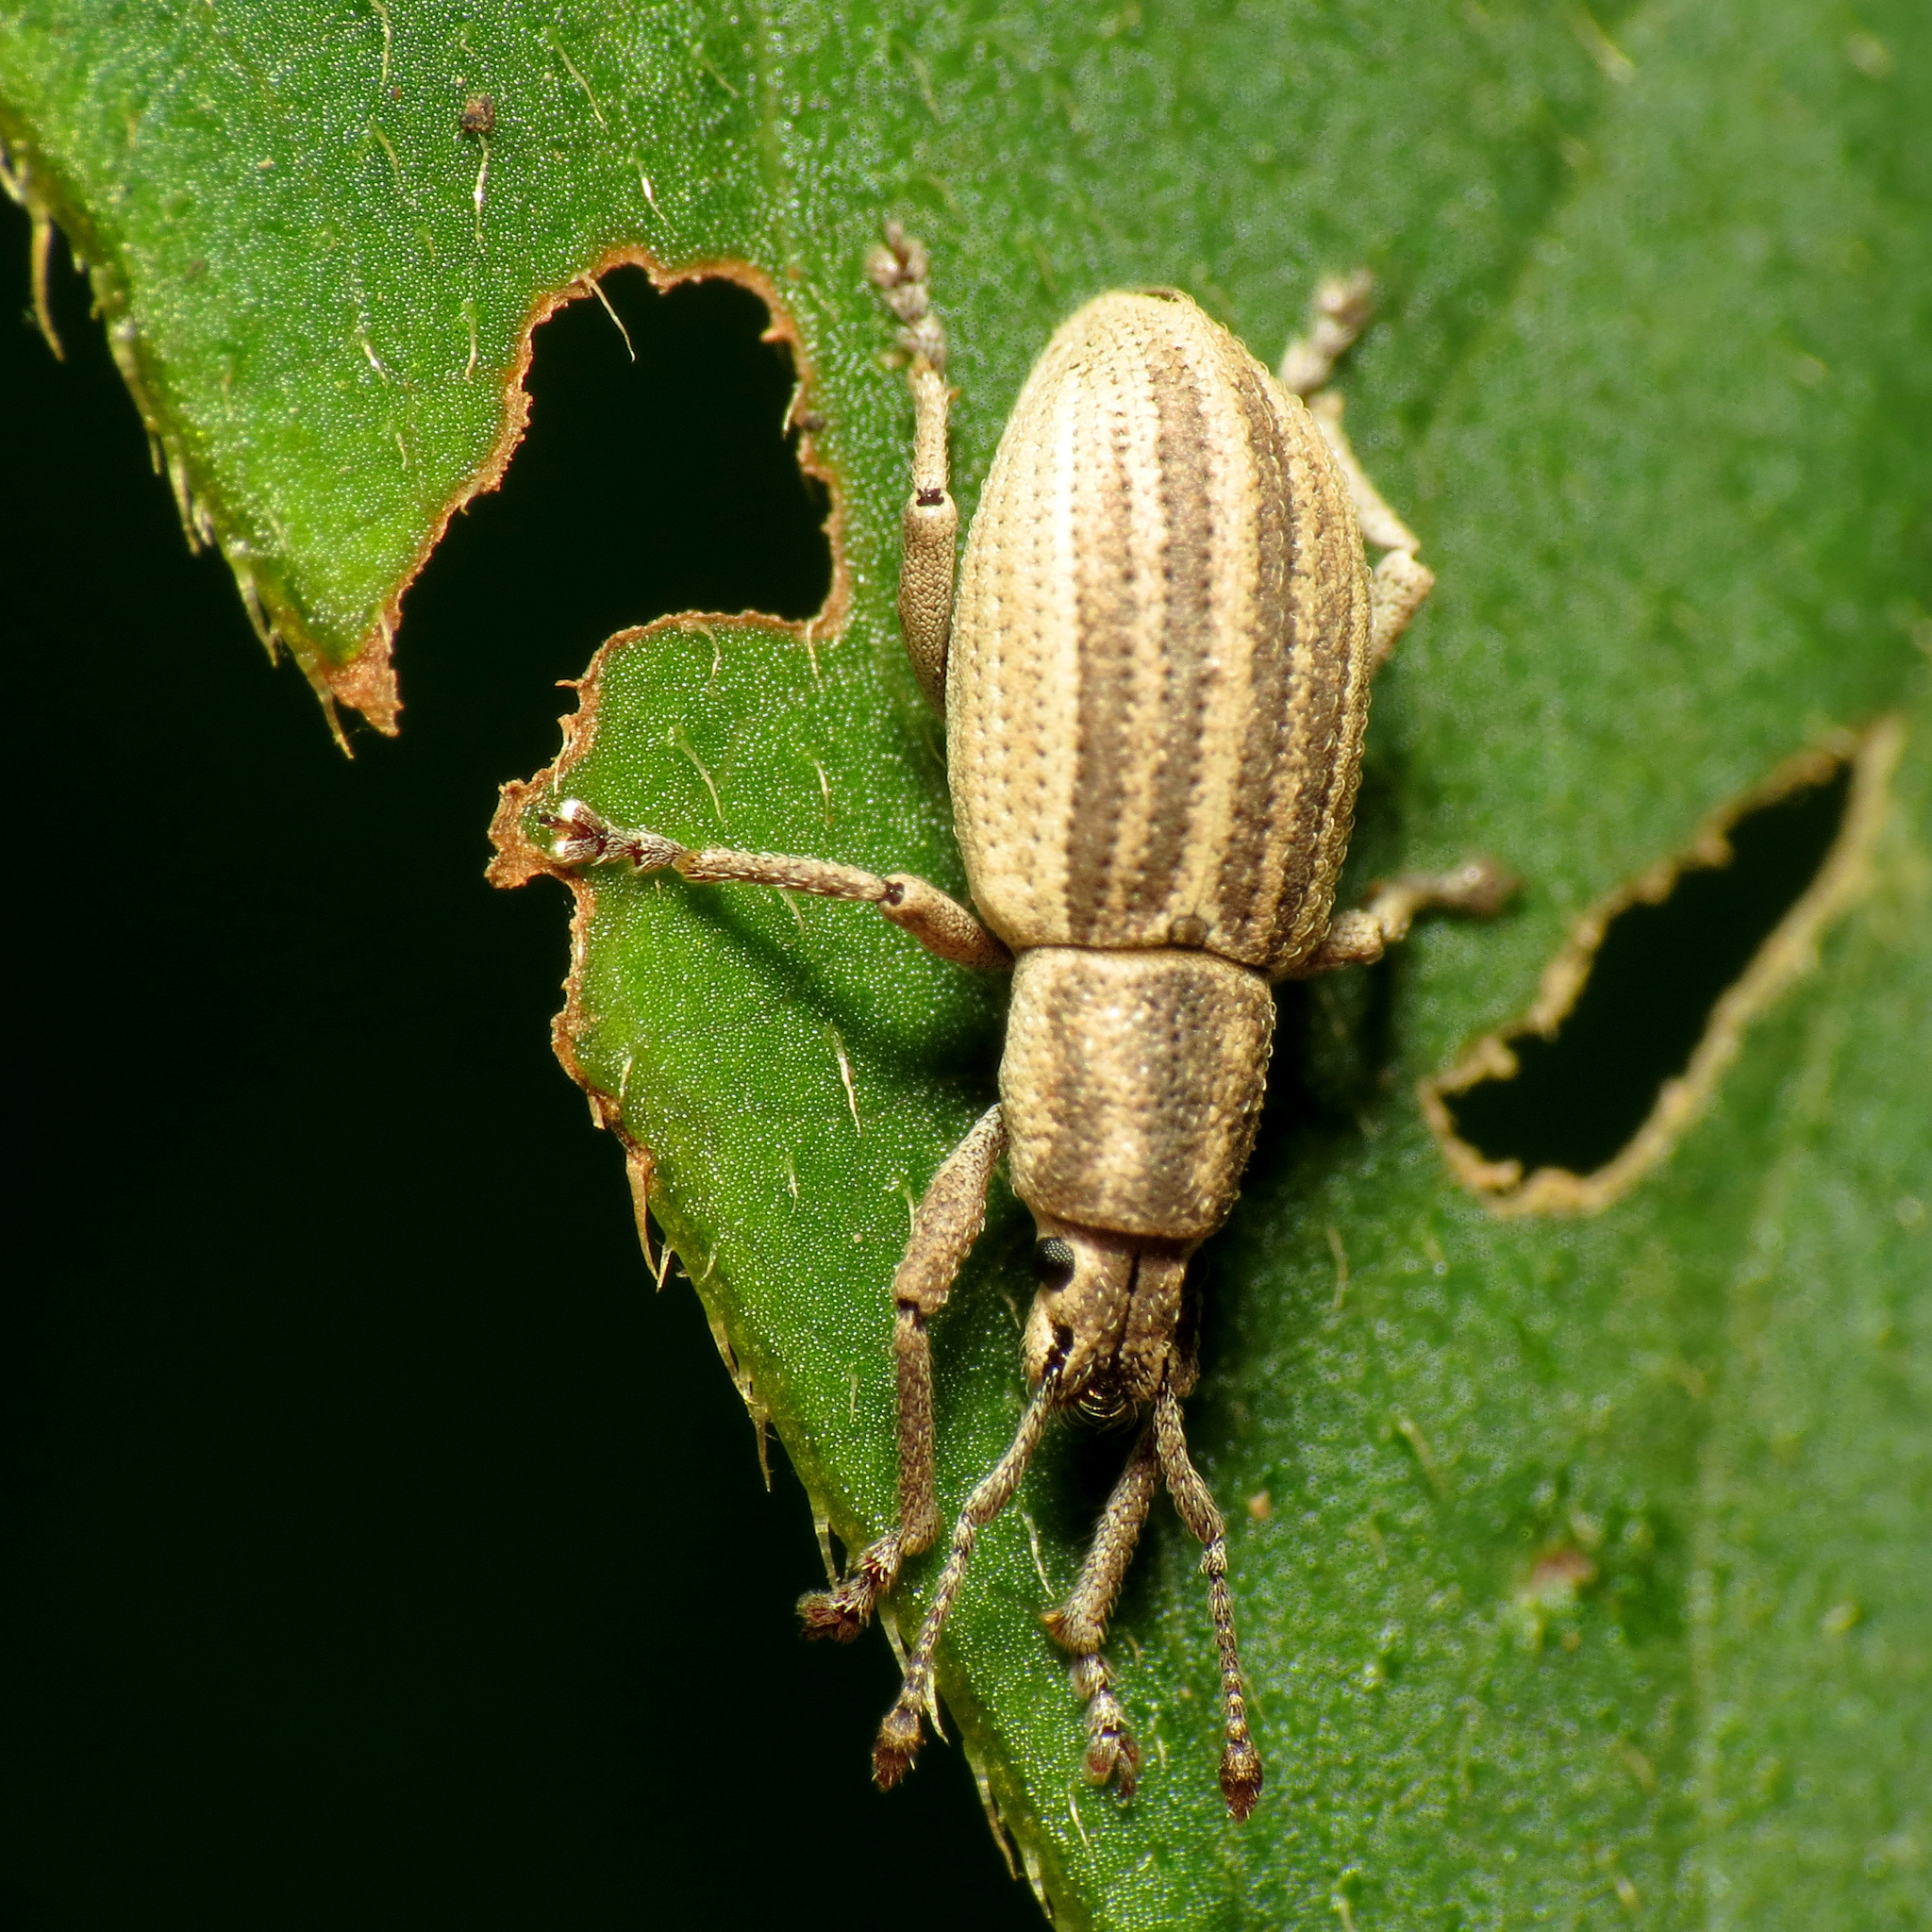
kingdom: Animalia
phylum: Arthropoda
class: Insecta
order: Coleoptera
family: Curculionidae
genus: Aphrastus
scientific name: Aphrastus taeniatus
